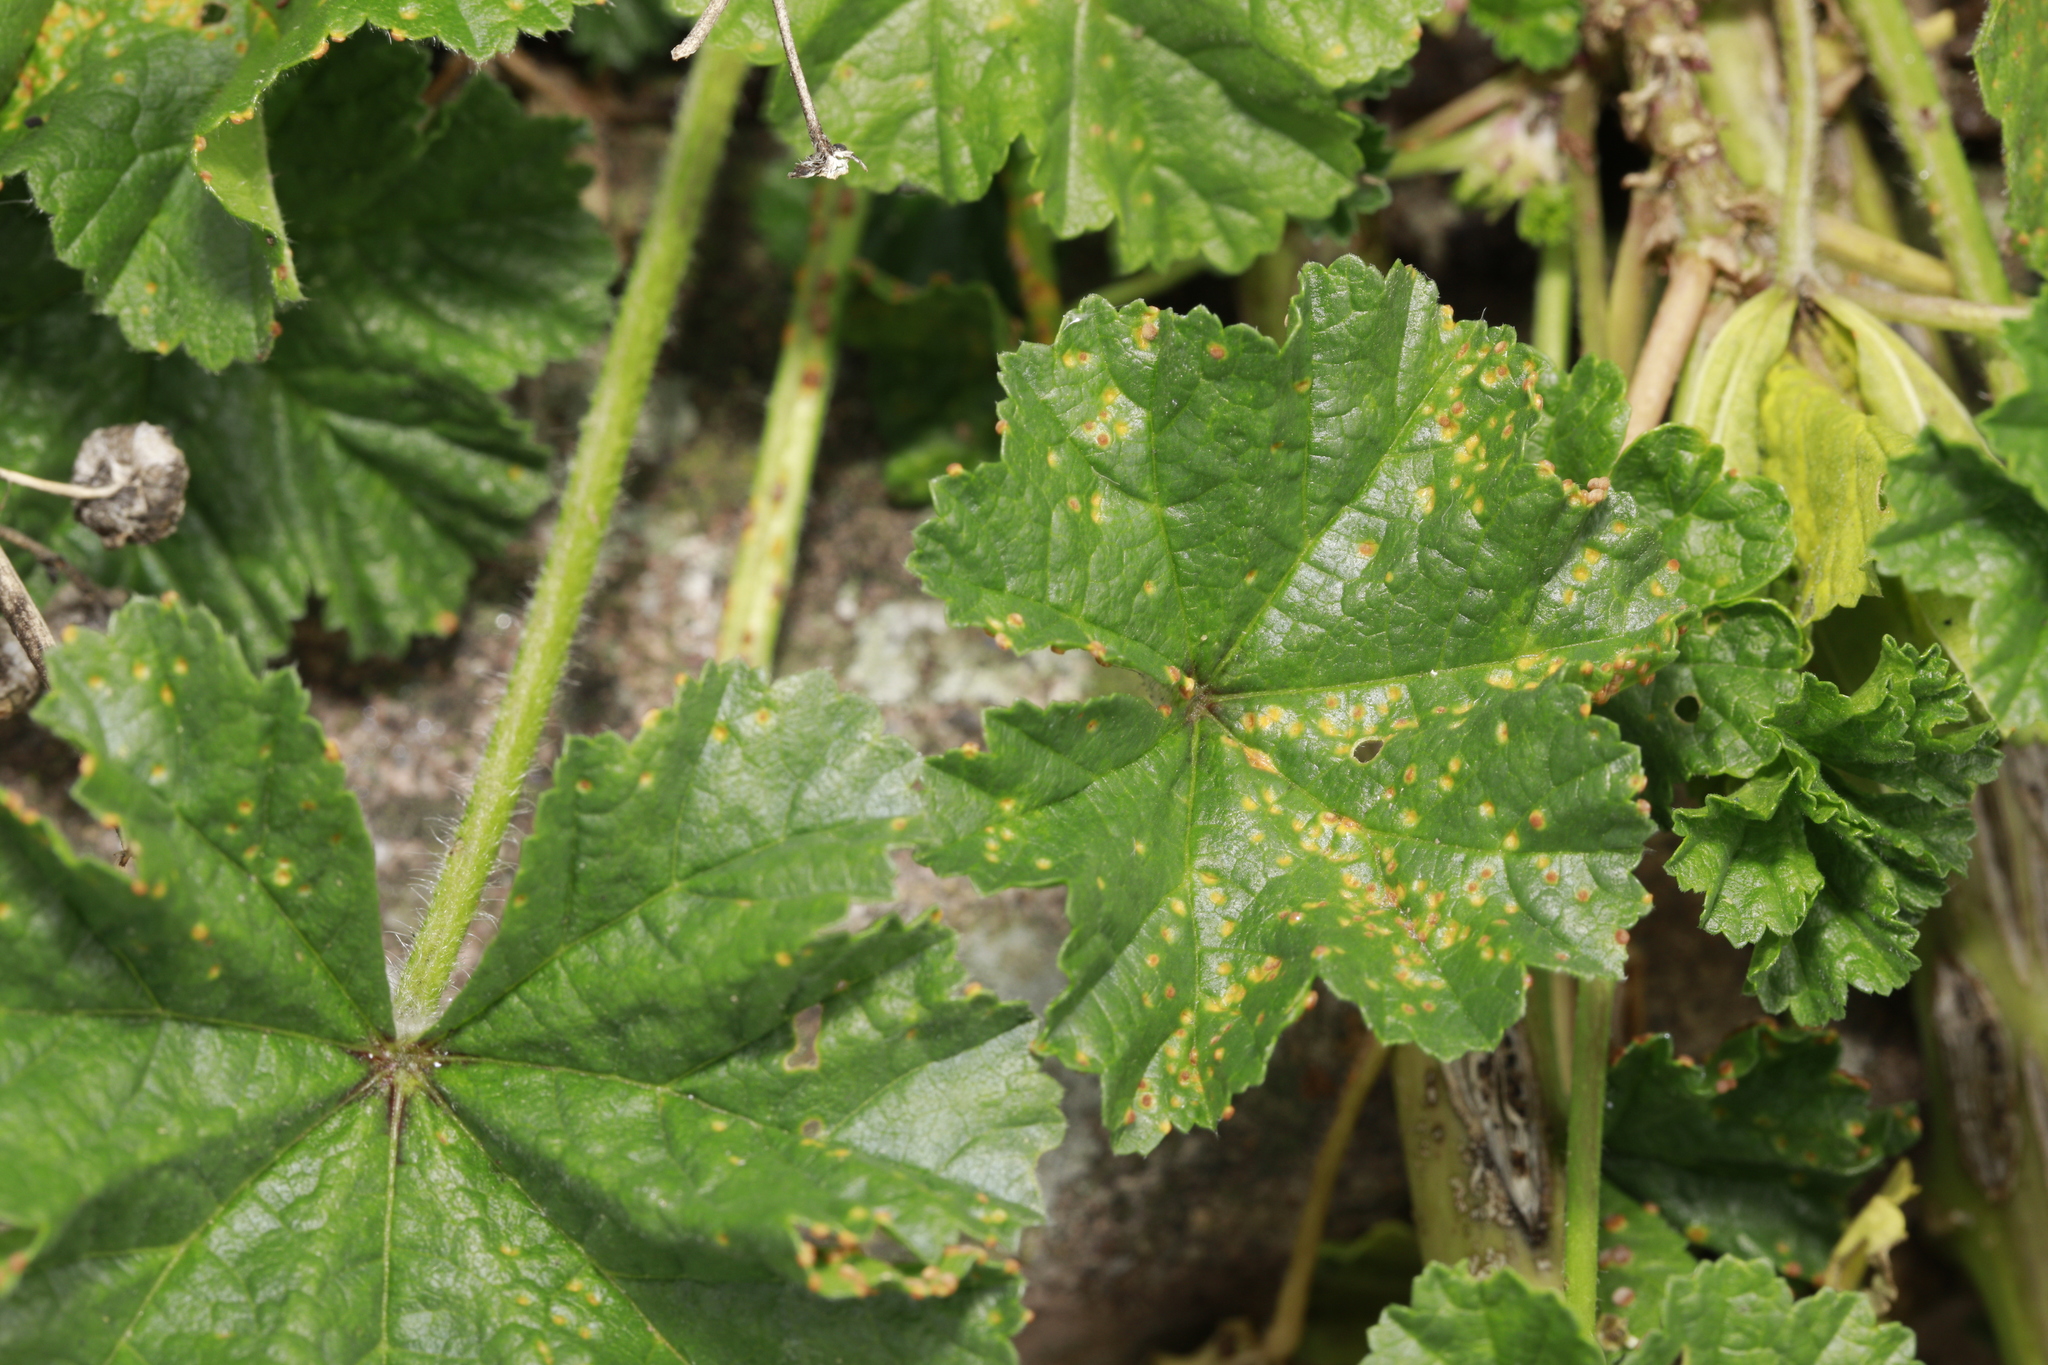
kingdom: Fungi
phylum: Basidiomycota
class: Pucciniomycetes
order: Pucciniales
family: Pucciniaceae
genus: Puccinia
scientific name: Puccinia malvacearum
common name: Hollyhock rust
